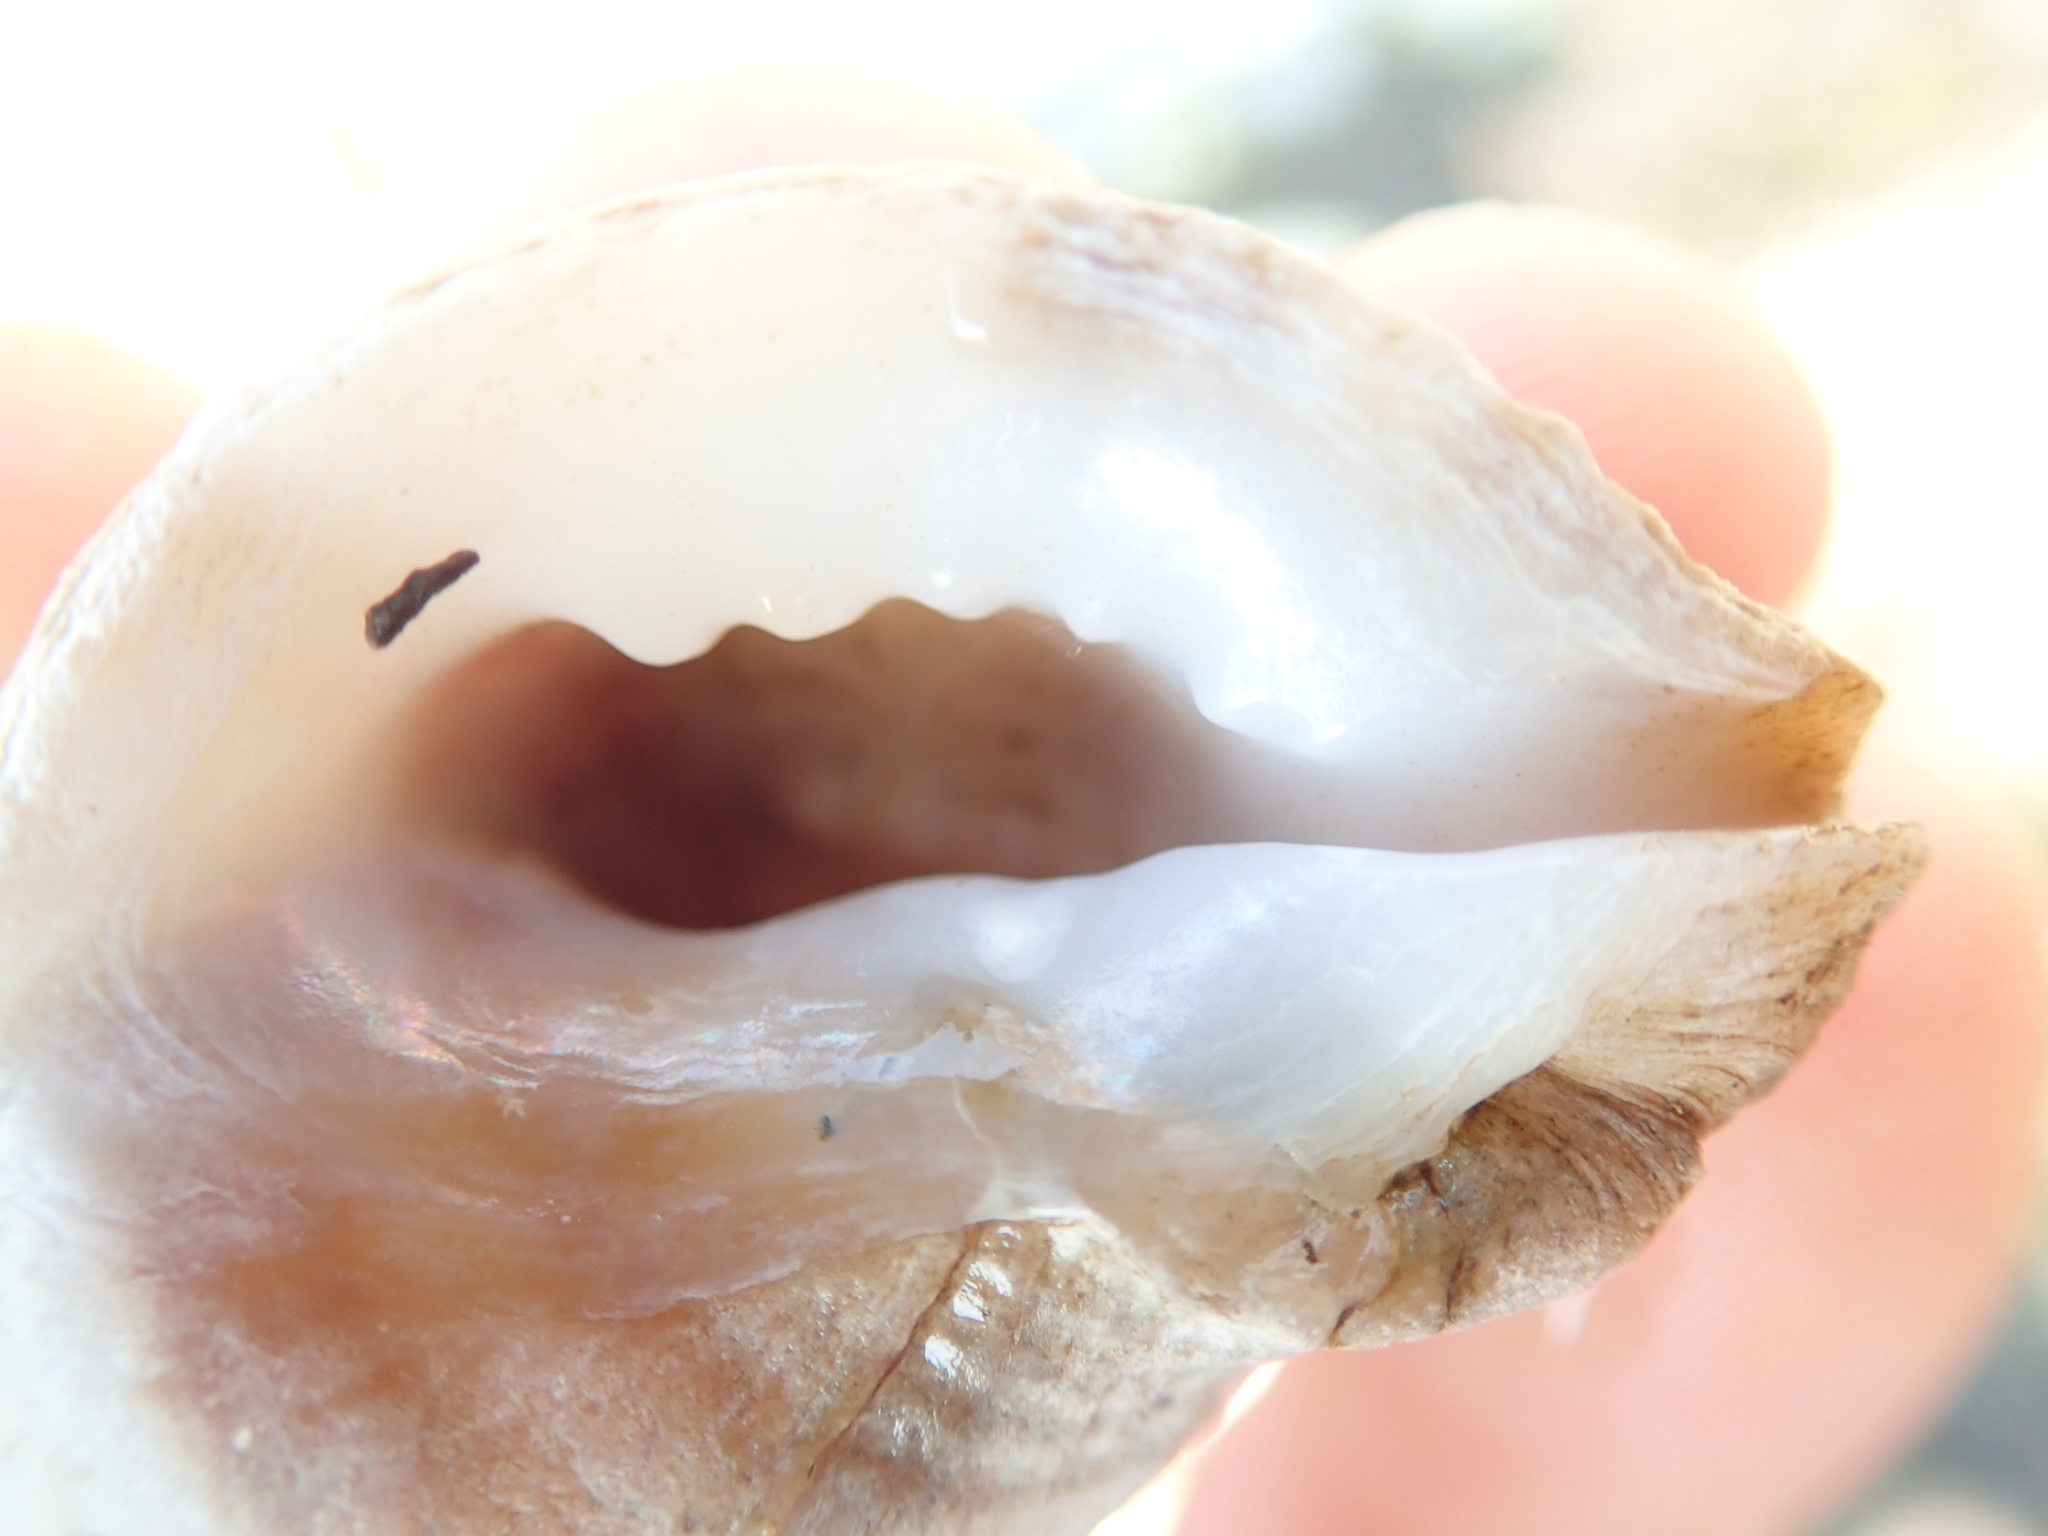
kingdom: Animalia
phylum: Mollusca
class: Gastropoda
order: Neogastropoda
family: Muricidae
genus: Nucella
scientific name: Nucella lamellosa
